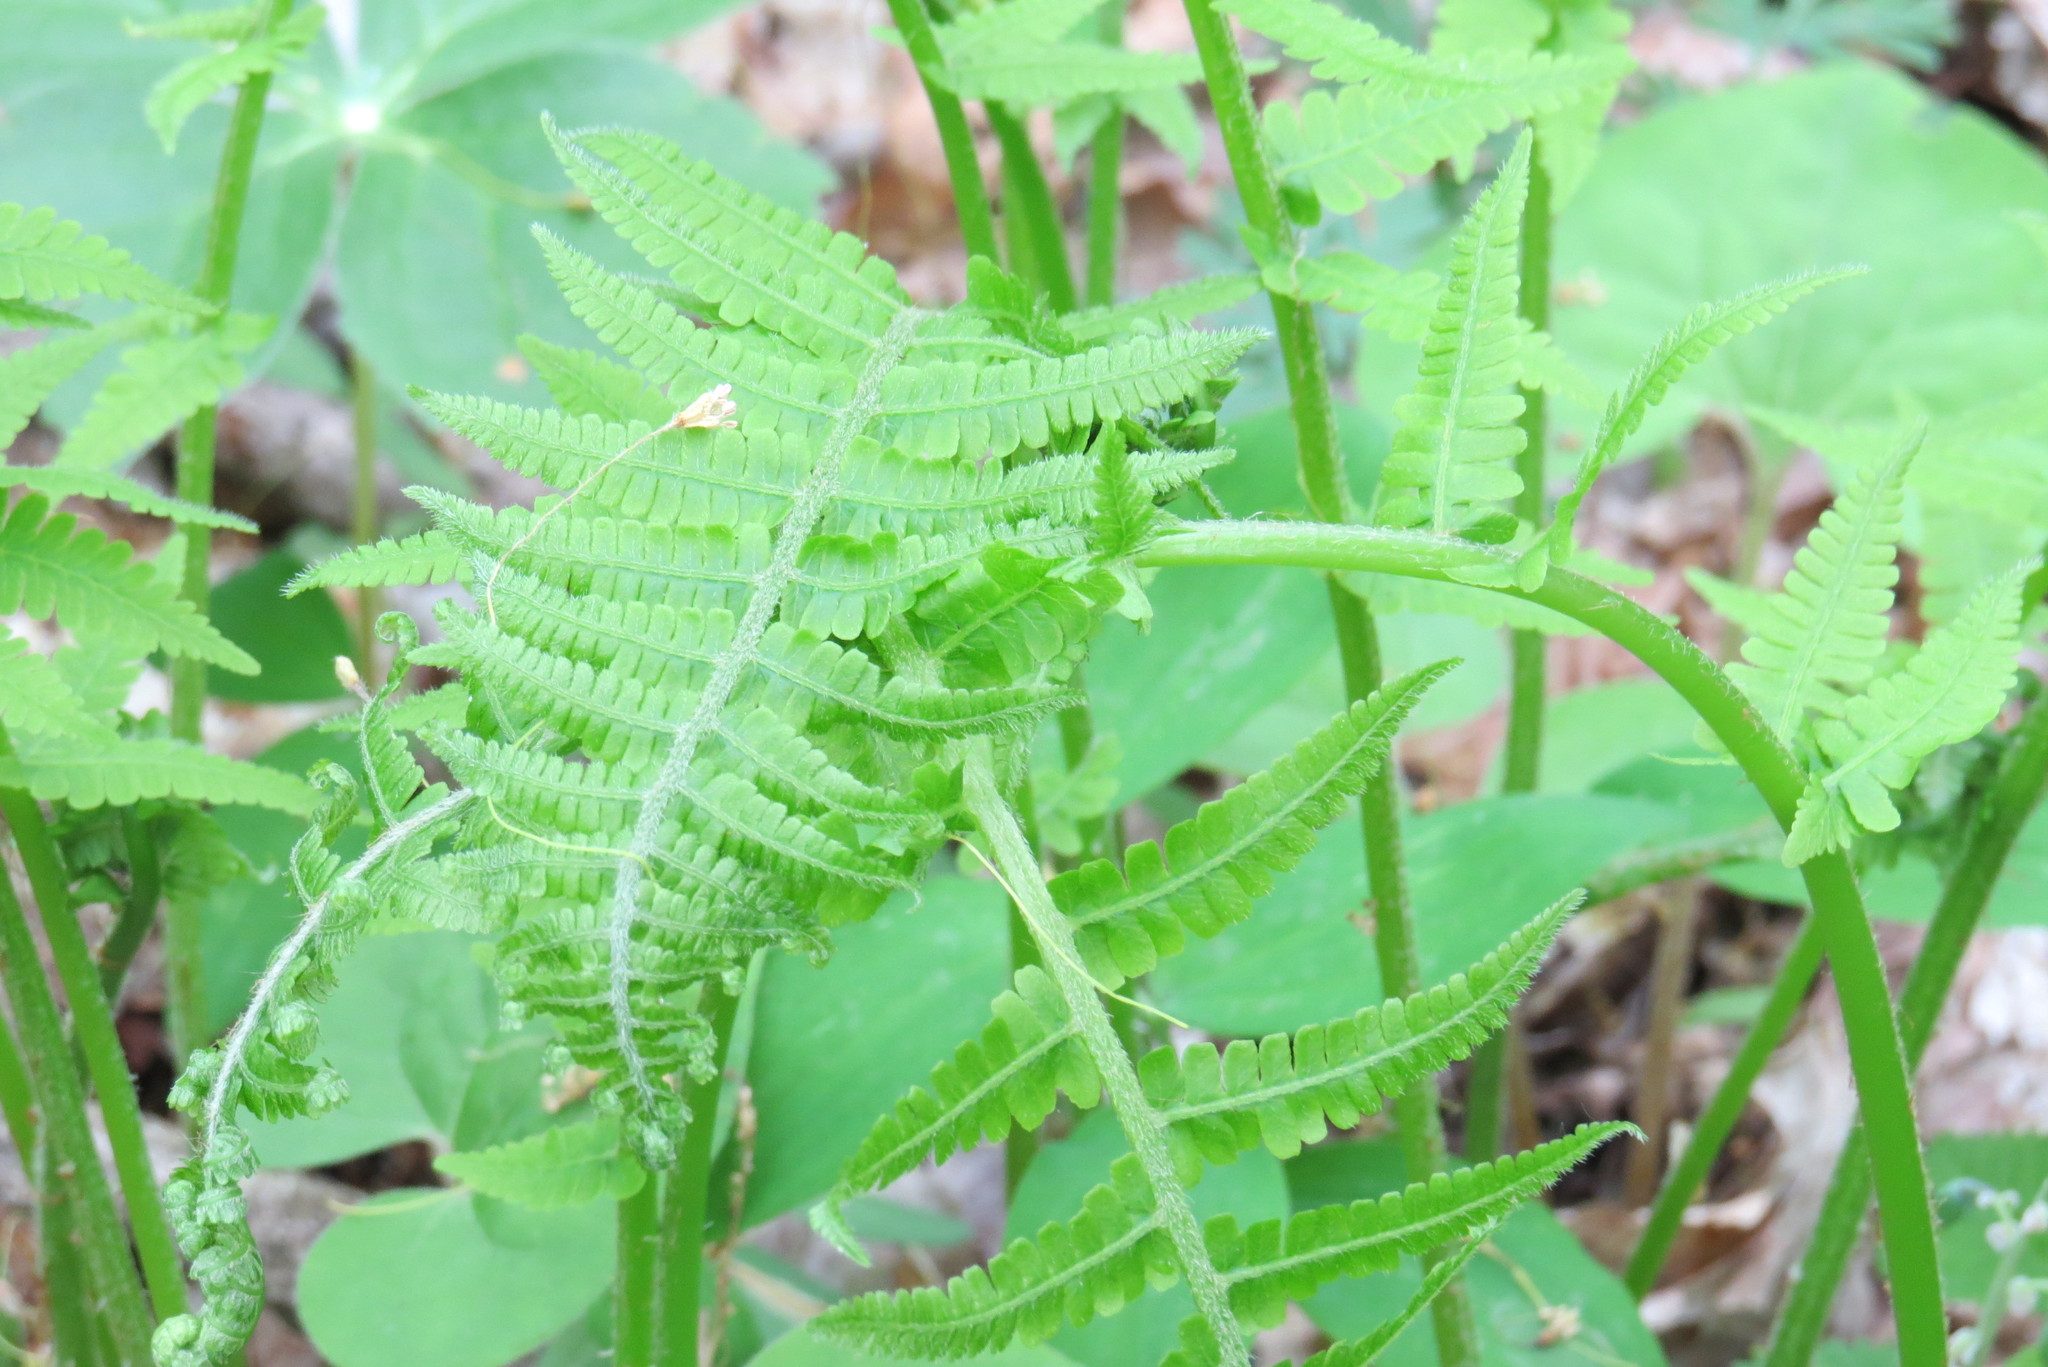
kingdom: Plantae
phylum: Tracheophyta
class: Polypodiopsida
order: Polypodiales
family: Athyriaceae
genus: Deparia
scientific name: Deparia acrostichoides
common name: Silver false spleenwort
